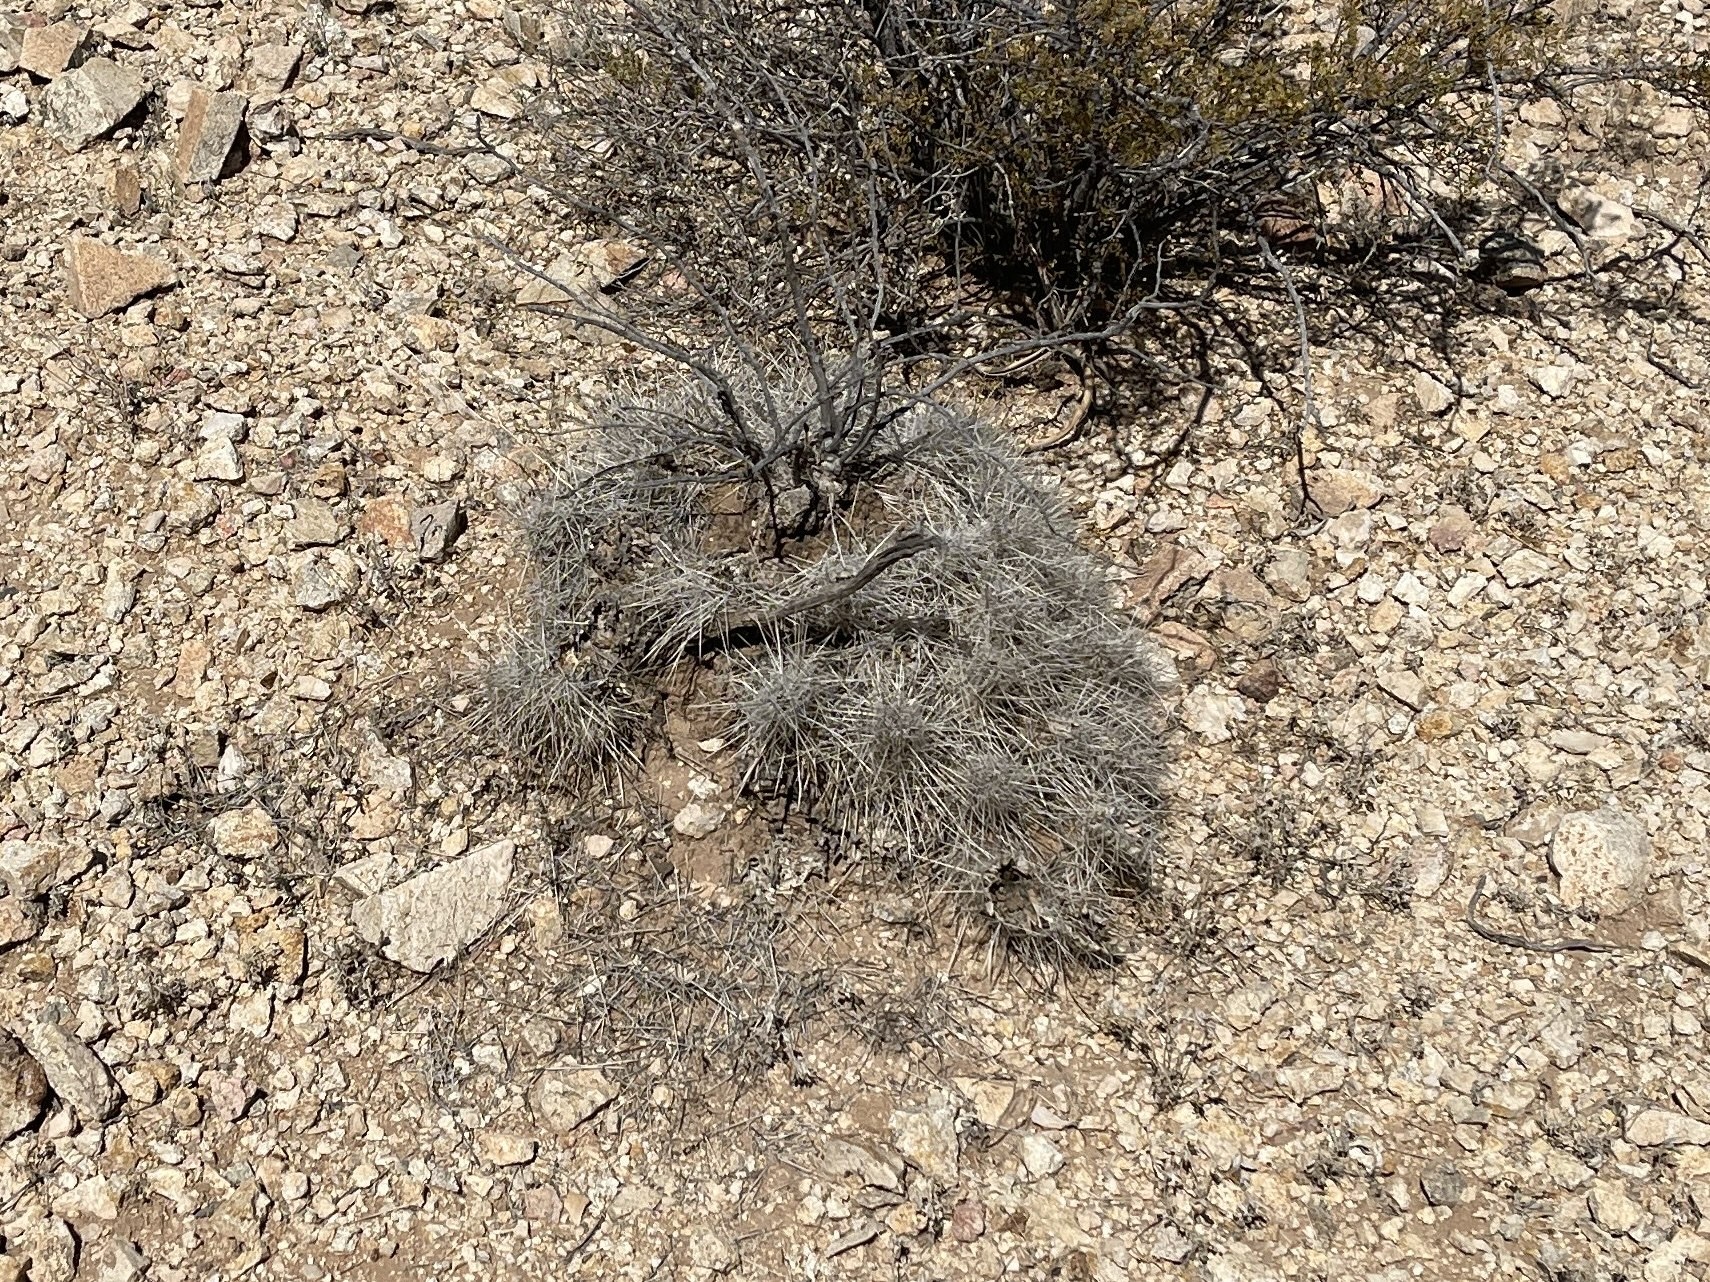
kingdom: Plantae
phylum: Tracheophyta
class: Magnoliopsida
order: Caryophyllales
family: Cactaceae
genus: Echinocereus
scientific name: Echinocereus stramineus
